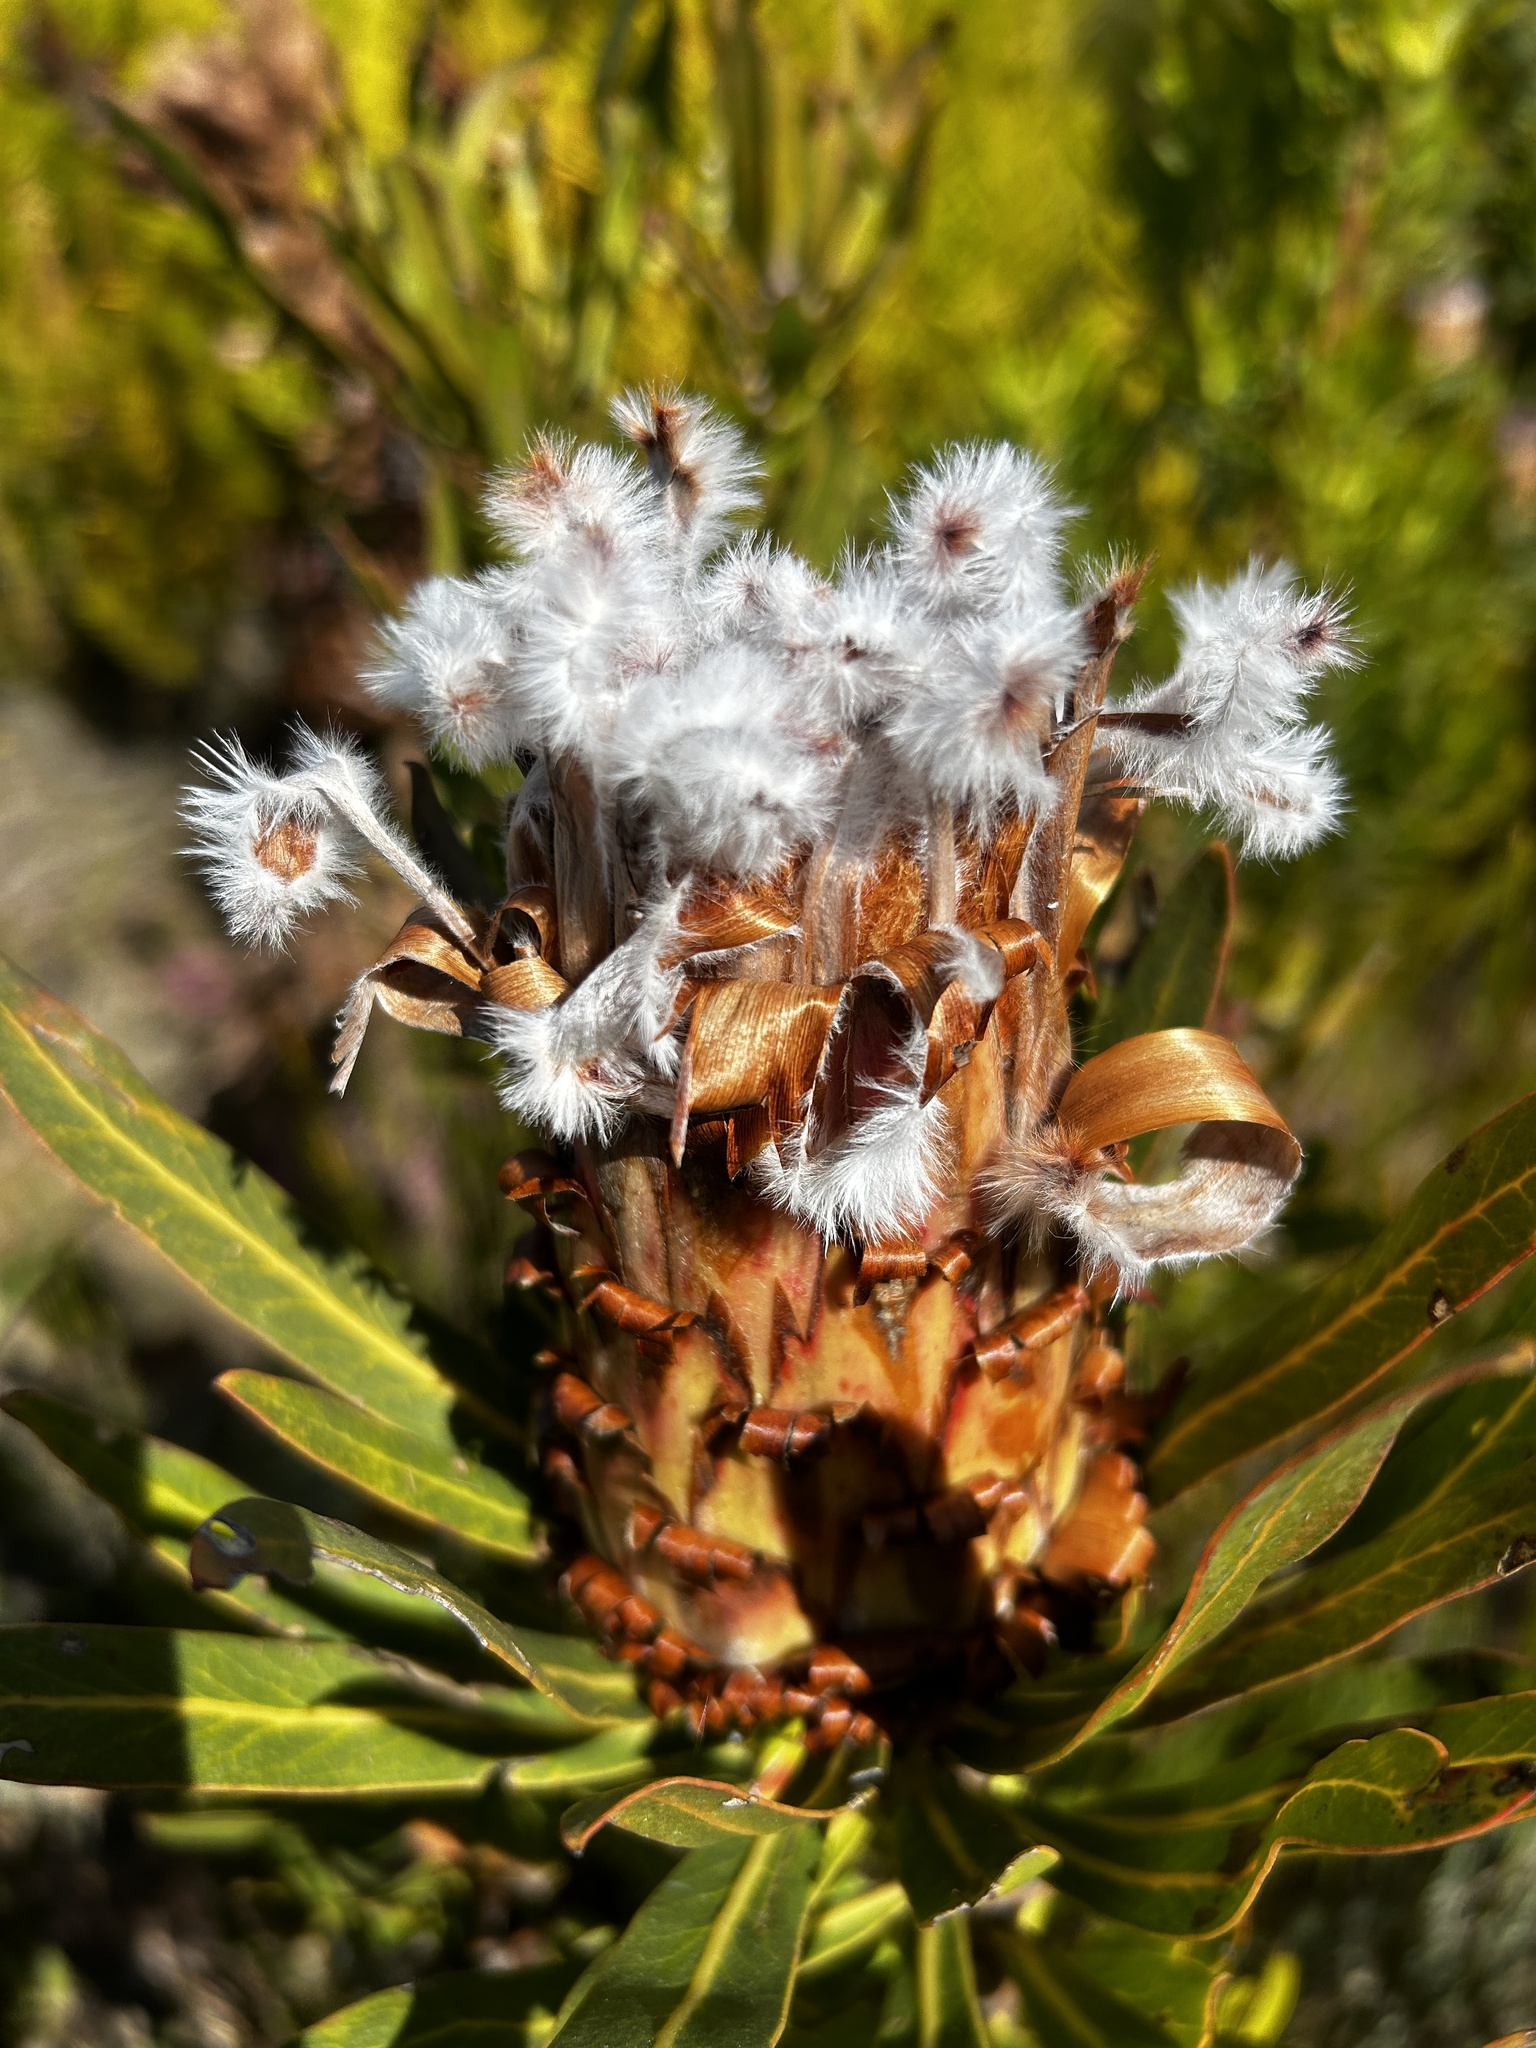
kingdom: Plantae
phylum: Tracheophyta
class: Magnoliopsida
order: Proteales
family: Proteaceae
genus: Protea
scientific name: Protea neriifolia
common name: Blue sugarbush
